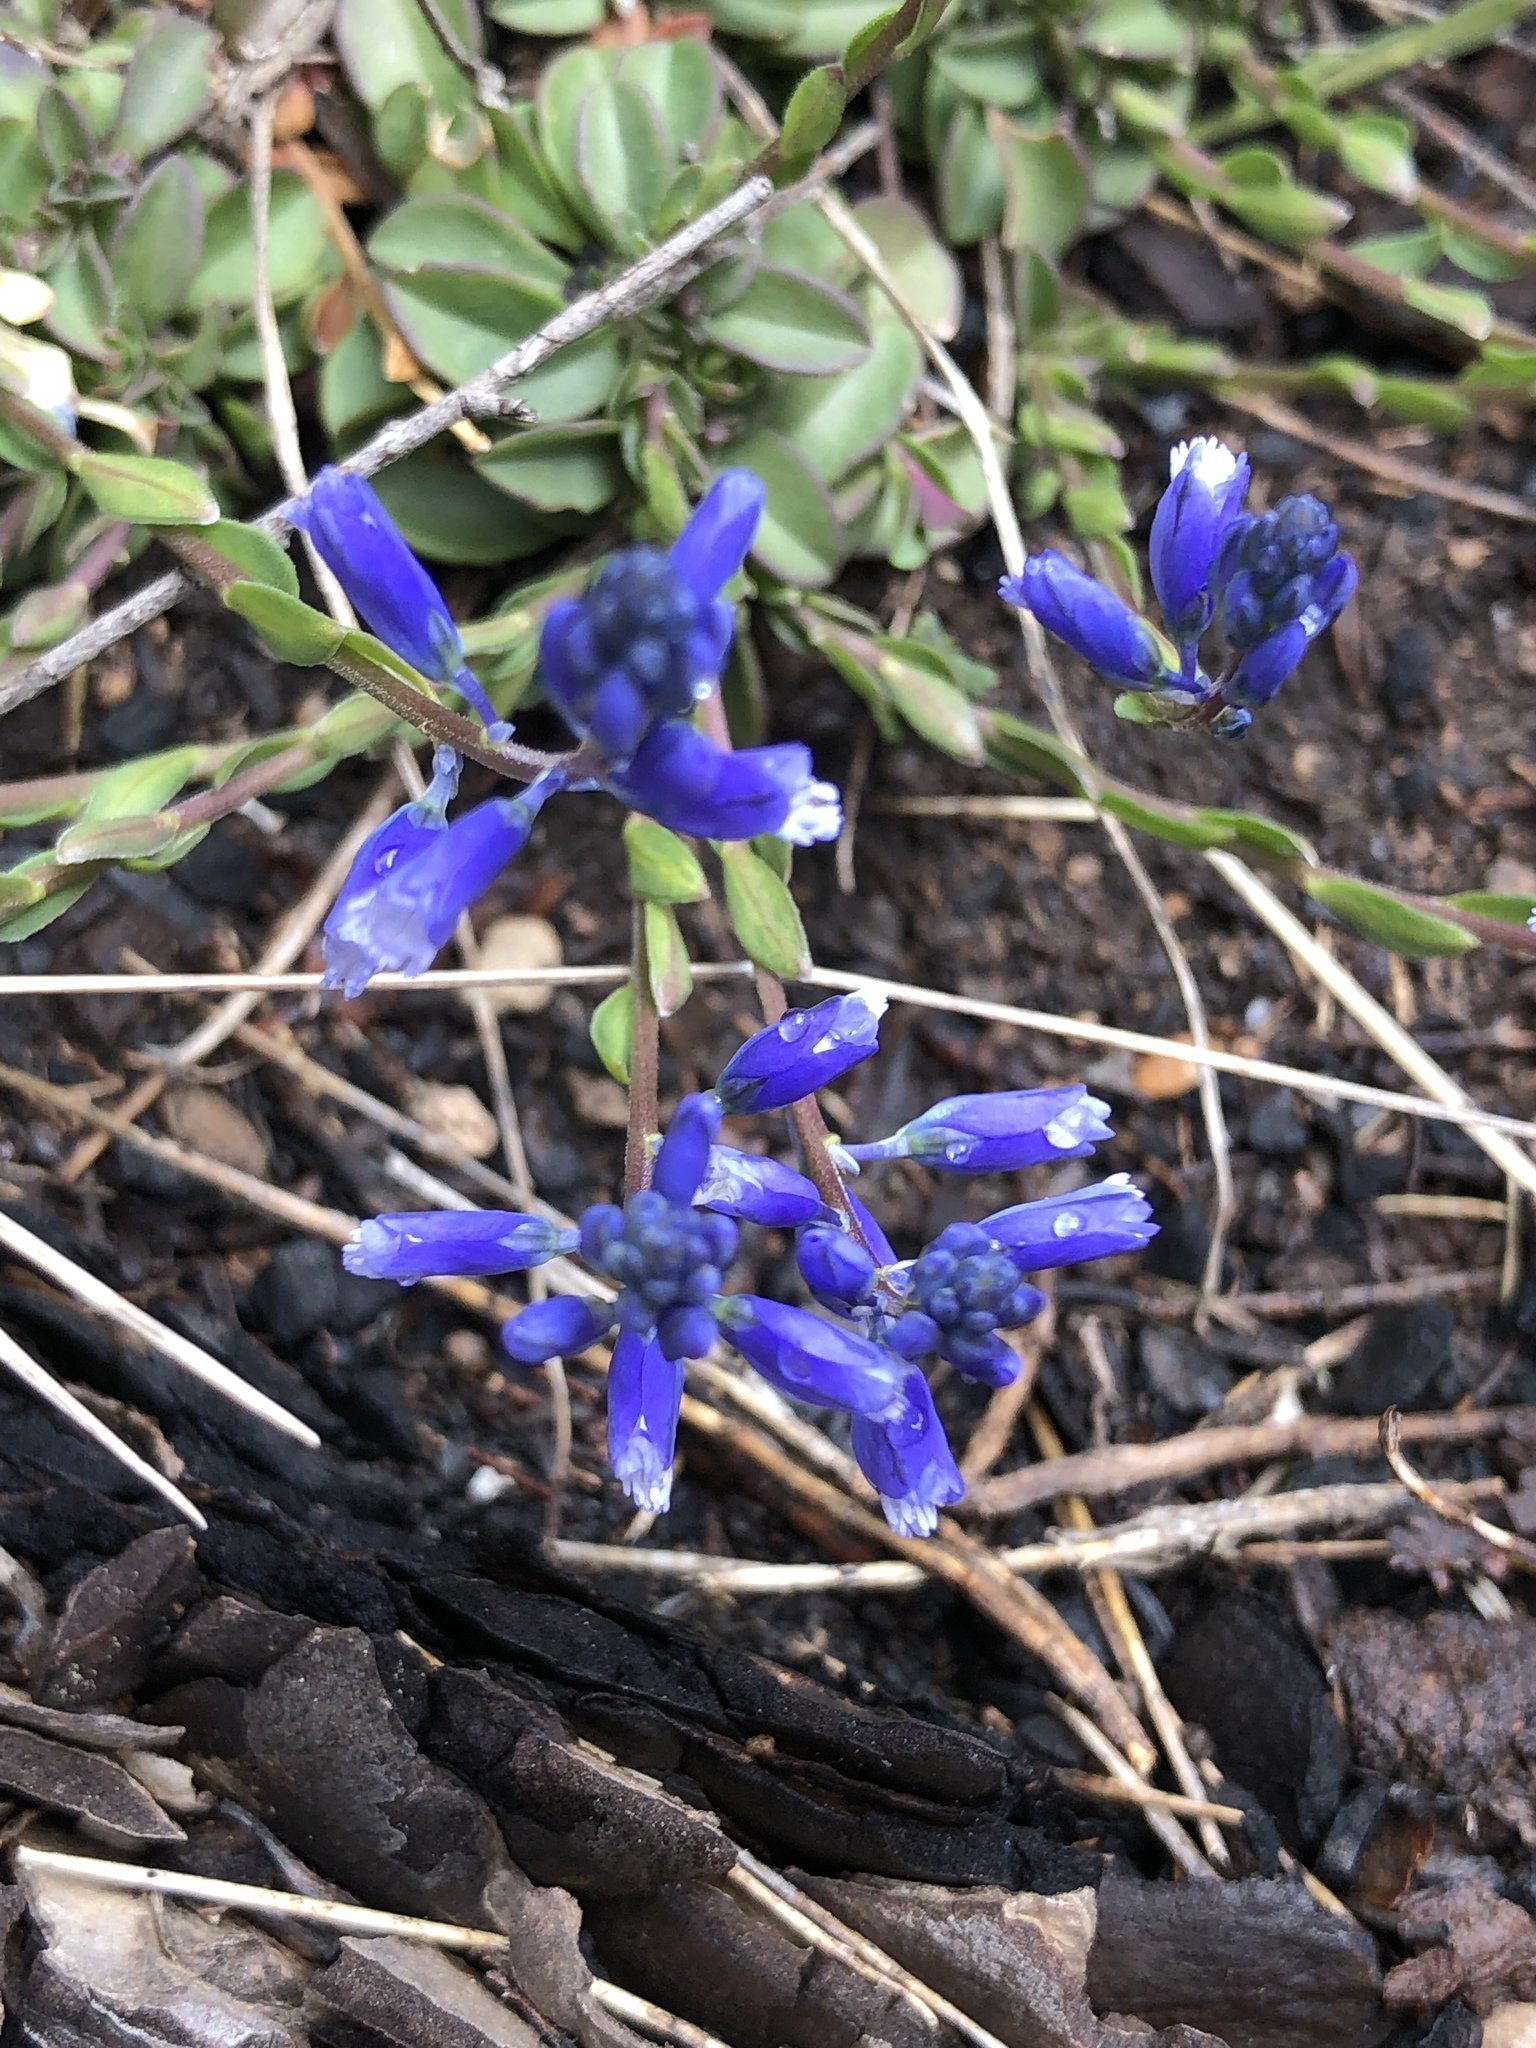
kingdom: Plantae
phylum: Tracheophyta
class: Liliopsida
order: Asparagales
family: Asparagaceae
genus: Muscari
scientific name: Muscari neglectum
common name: Grape-hyacinth
